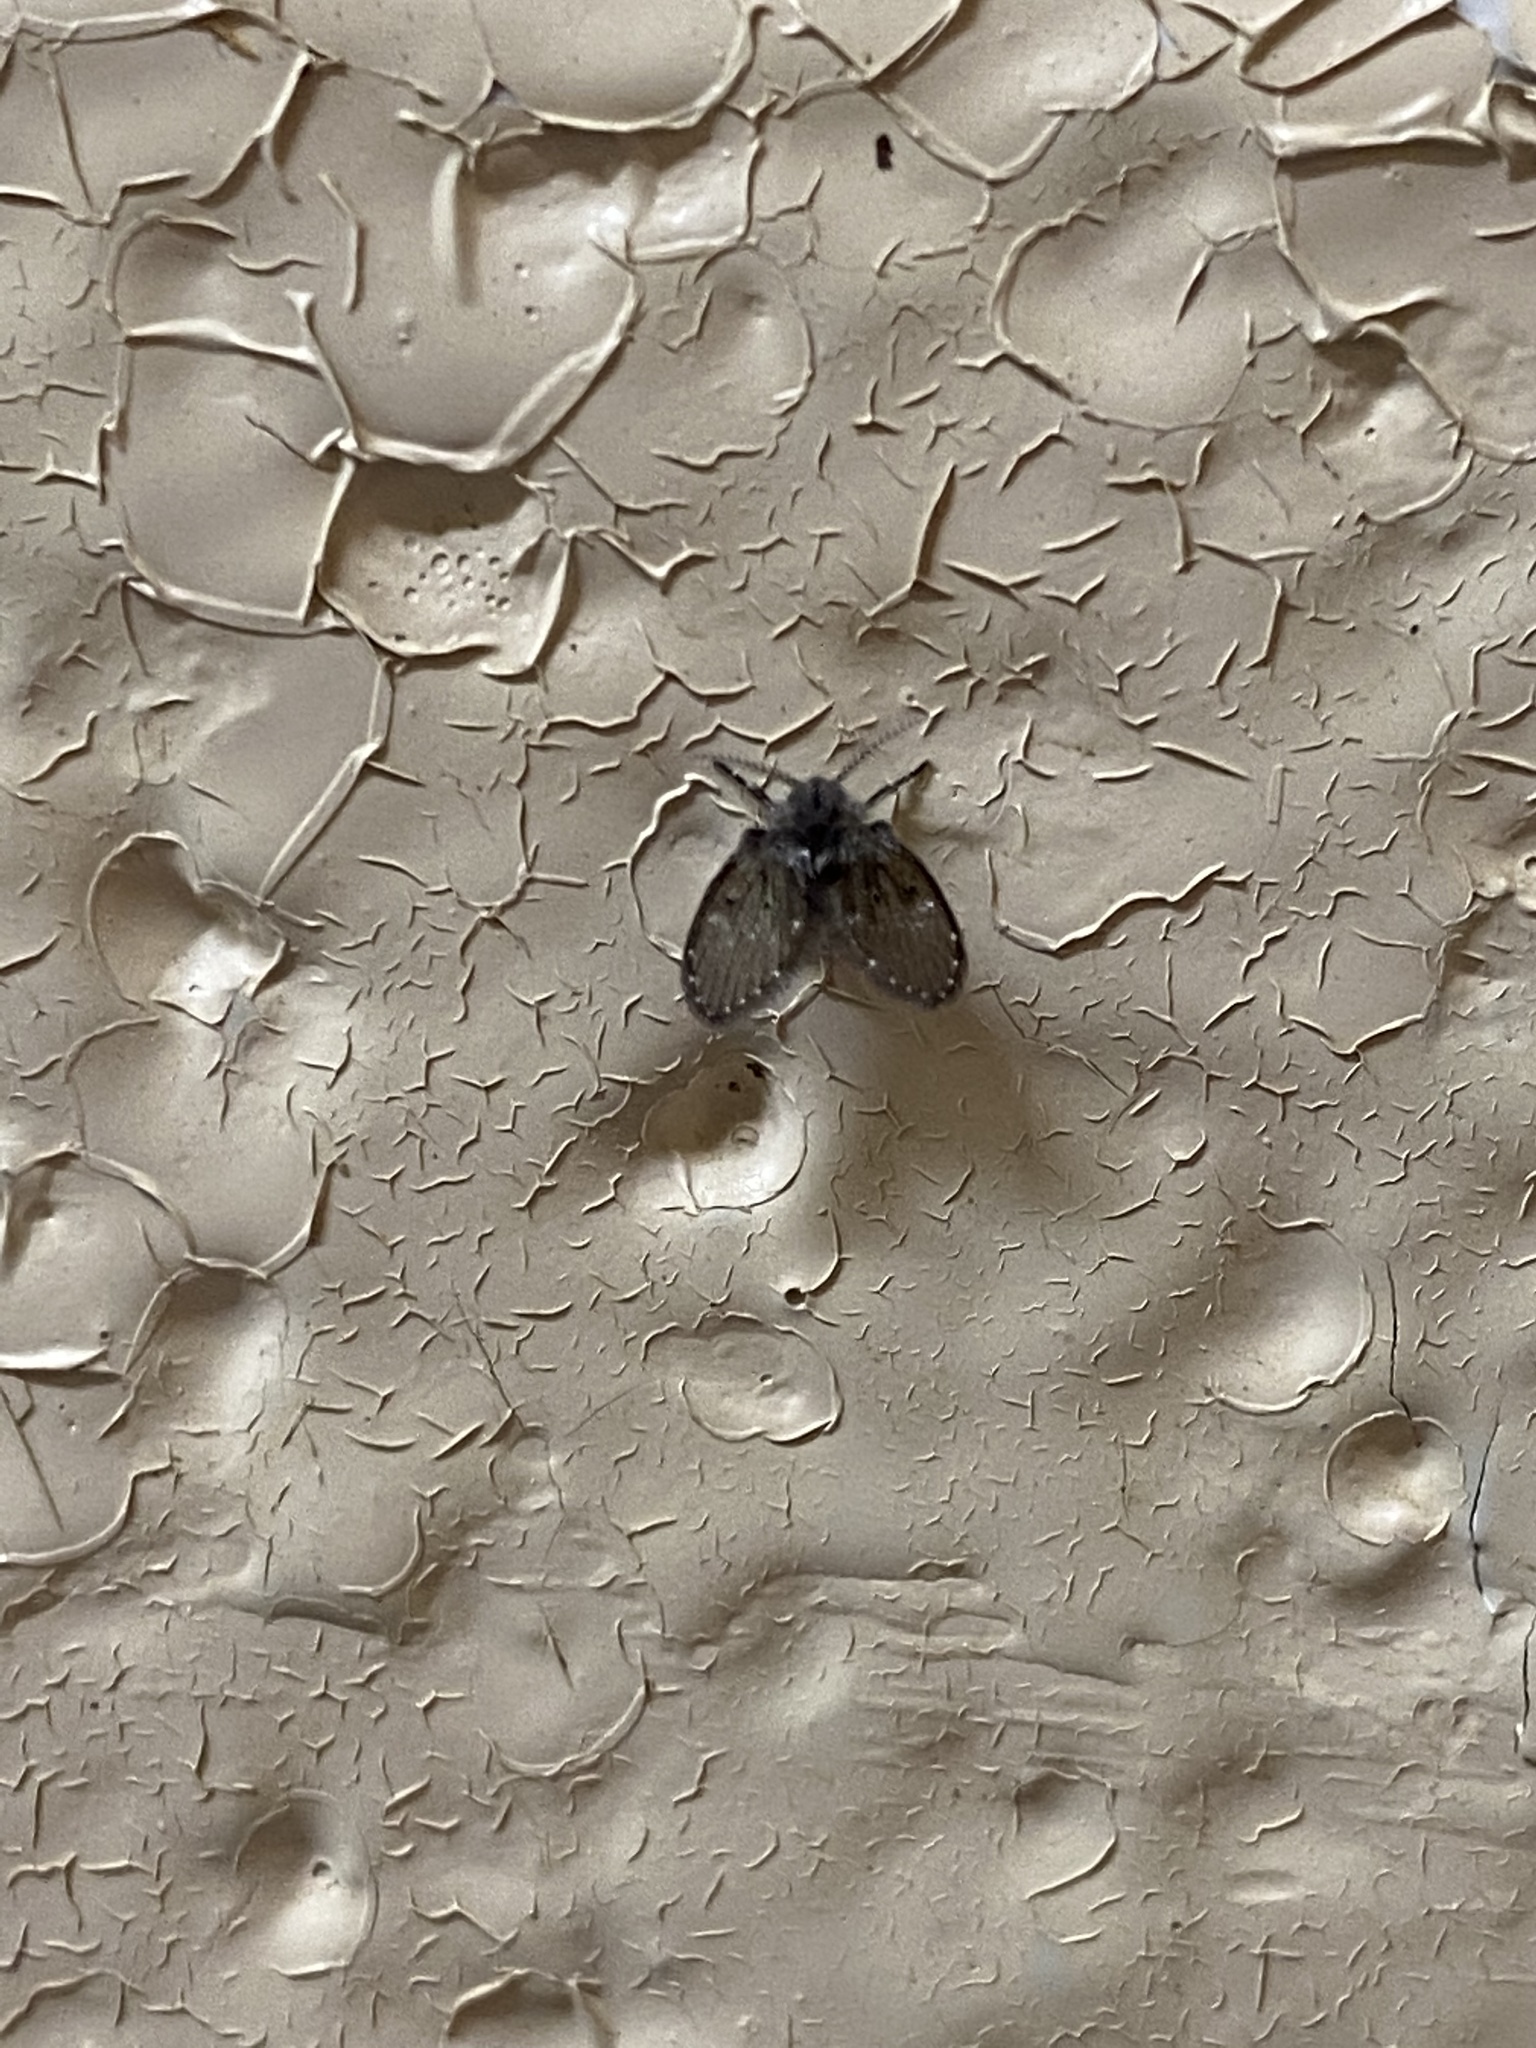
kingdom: Animalia
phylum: Arthropoda
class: Insecta
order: Diptera
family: Psychodidae
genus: Clogmia
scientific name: Clogmia albipunctatus
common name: White-spotted moth fly
